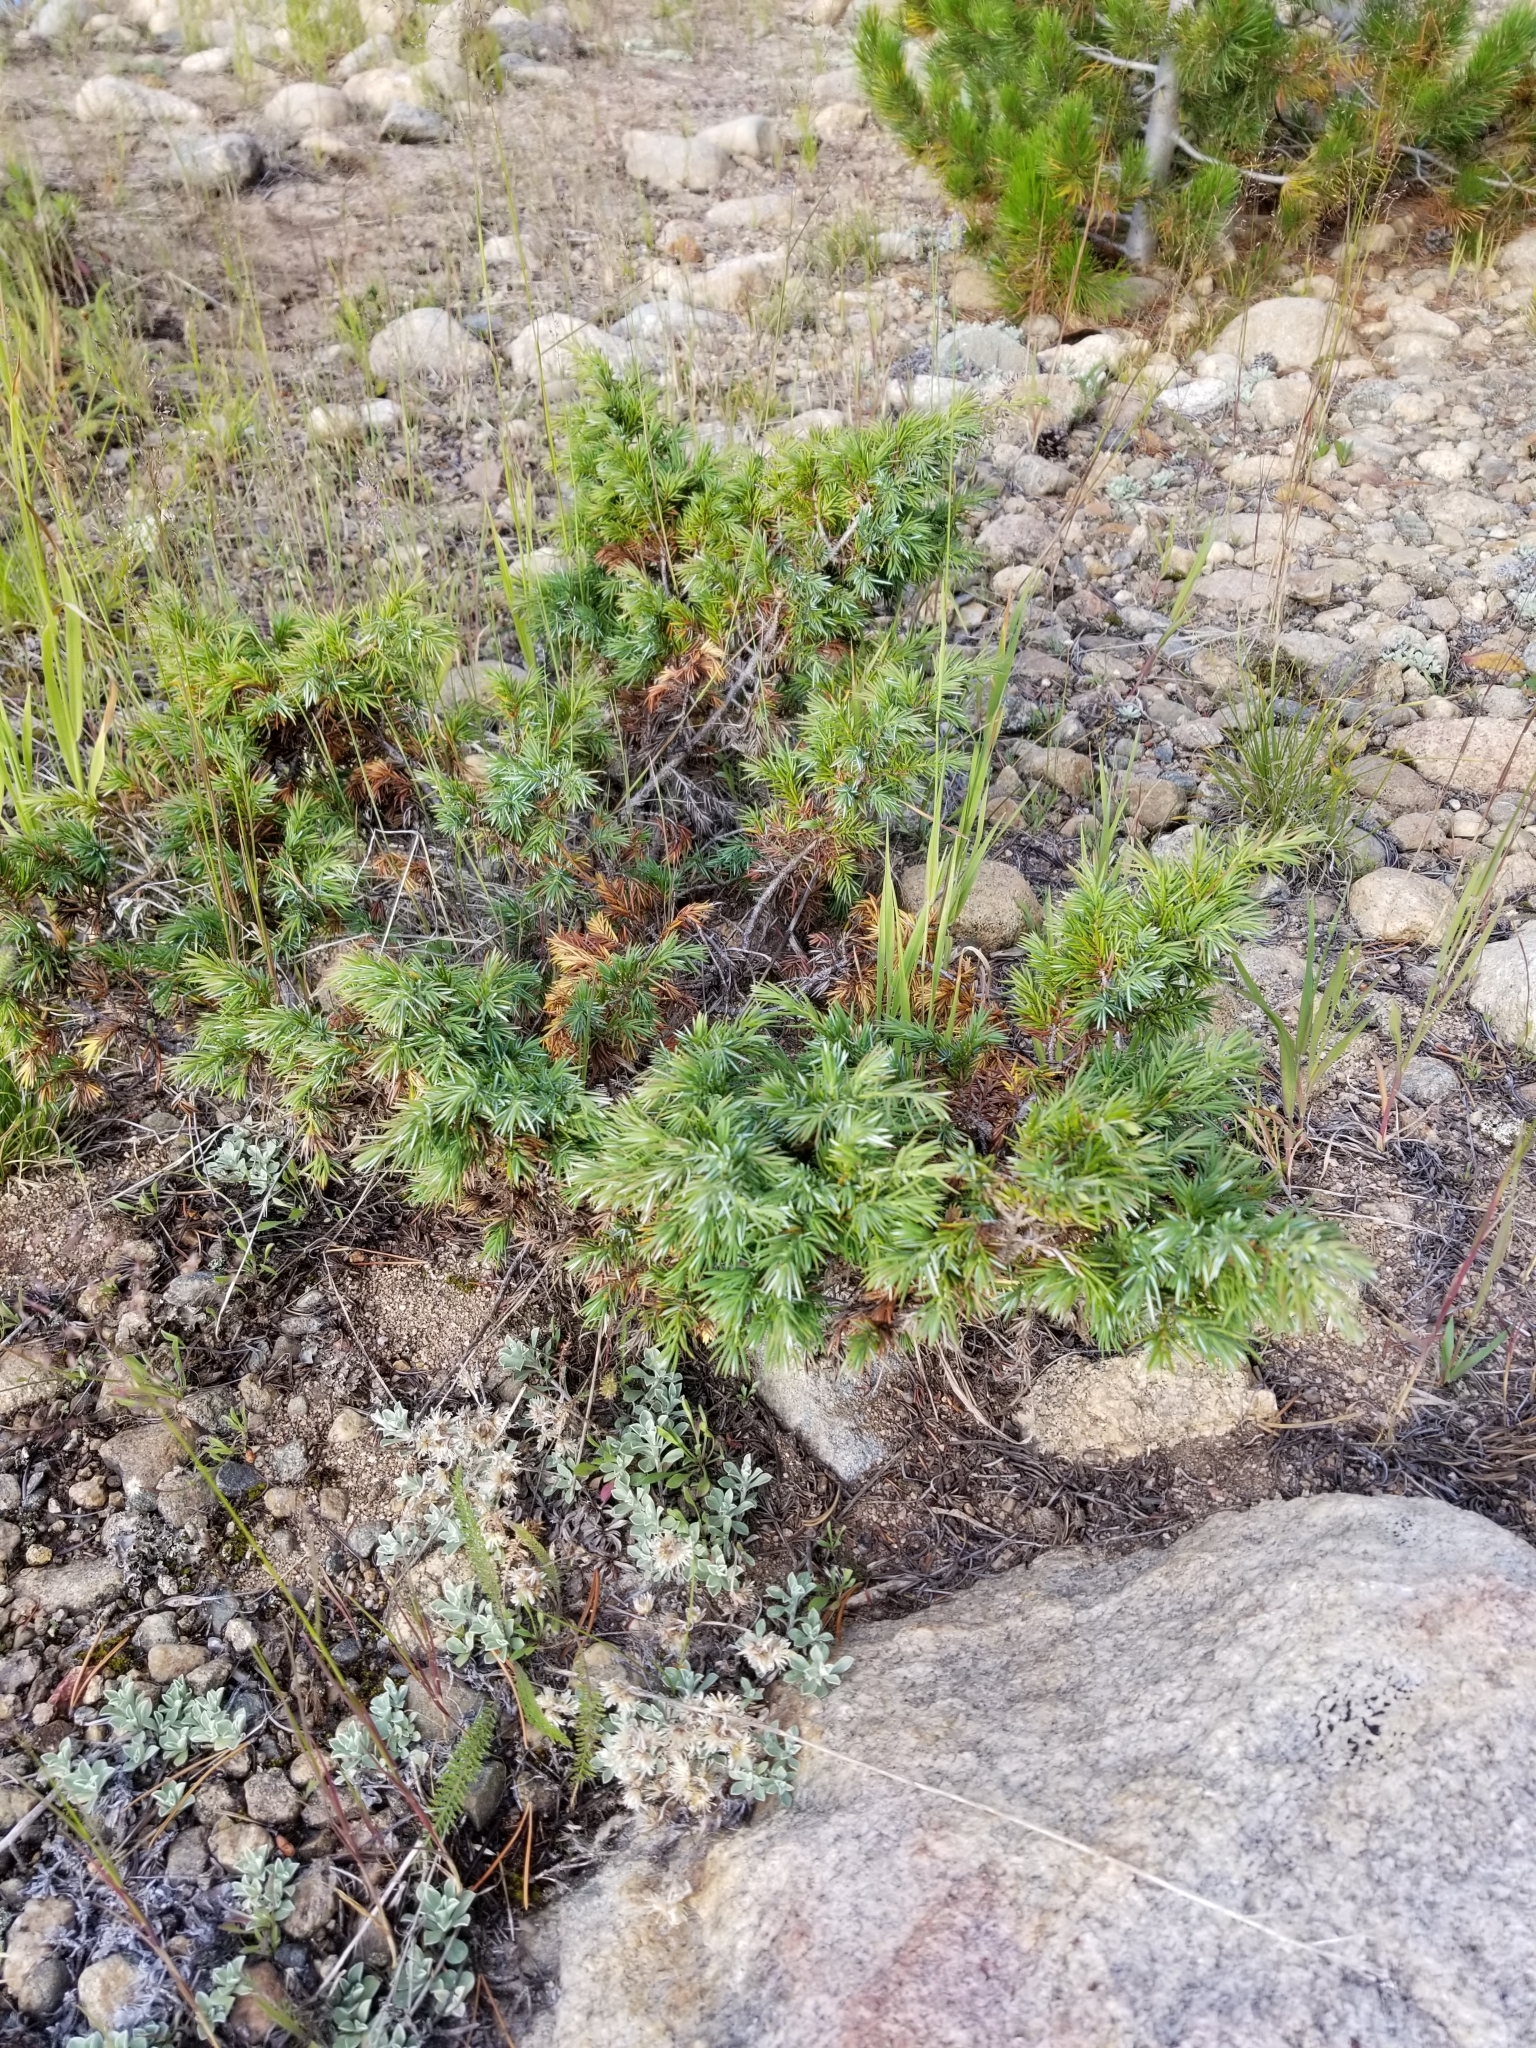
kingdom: Plantae
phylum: Tracheophyta
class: Pinopsida
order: Pinales
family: Cupressaceae
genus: Juniperus
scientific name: Juniperus communis
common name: Common juniper
